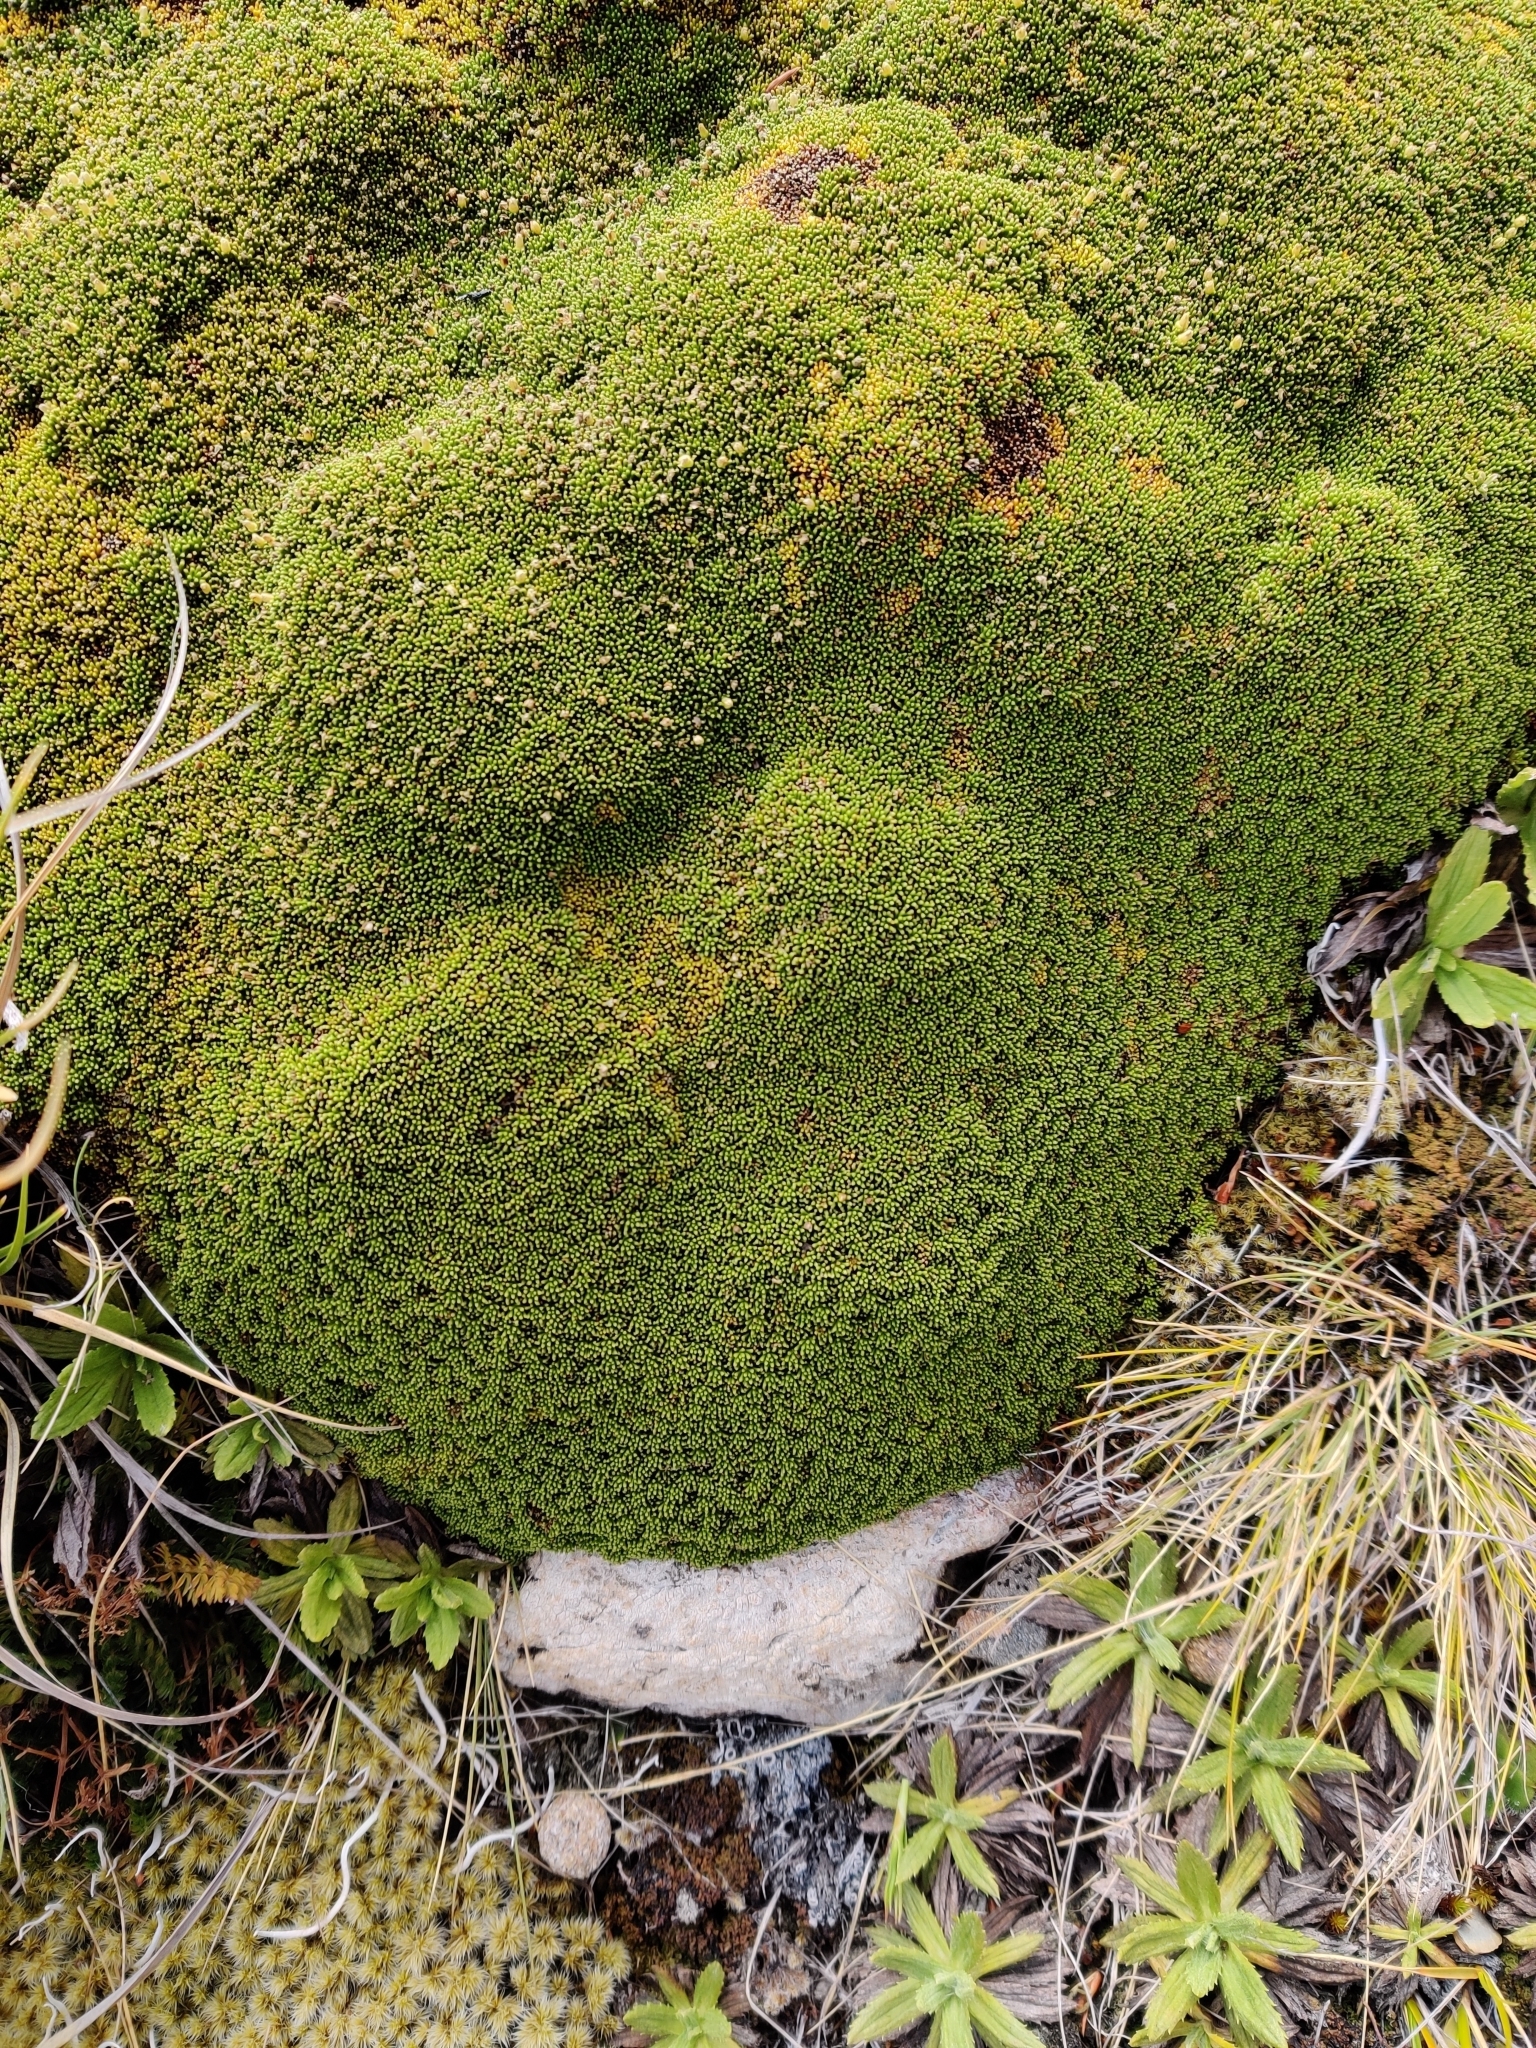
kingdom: Plantae
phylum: Tracheophyta
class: Magnoliopsida
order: Asterales
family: Stylidiaceae
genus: Phyllachne
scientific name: Phyllachne colensoi
